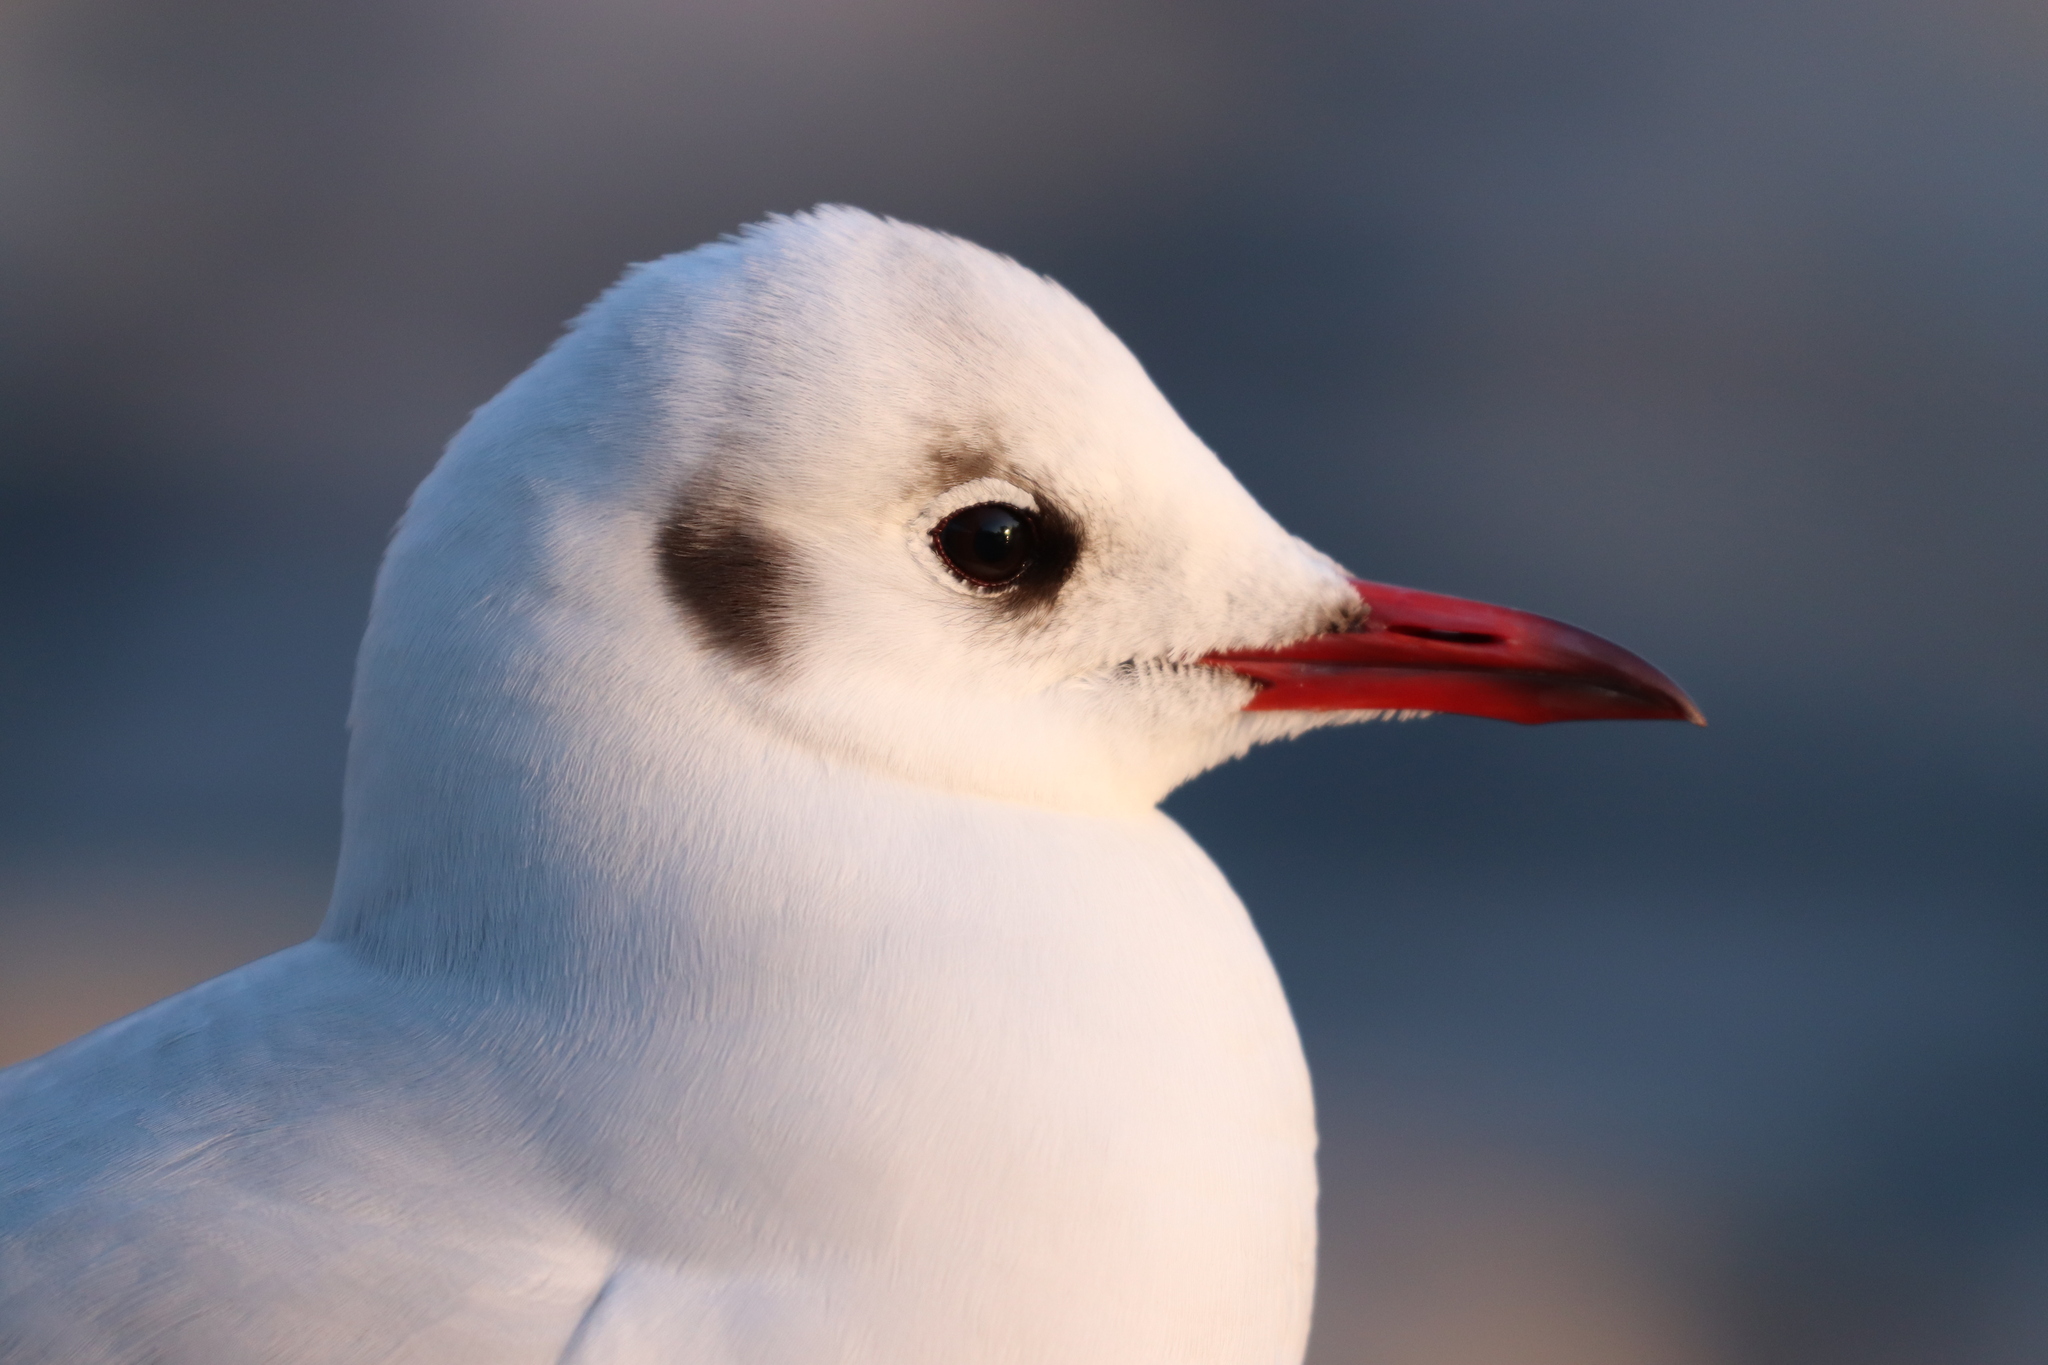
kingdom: Animalia
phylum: Chordata
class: Aves
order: Charadriiformes
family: Laridae
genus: Chroicocephalus
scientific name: Chroicocephalus ridibundus
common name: Black-headed gull
